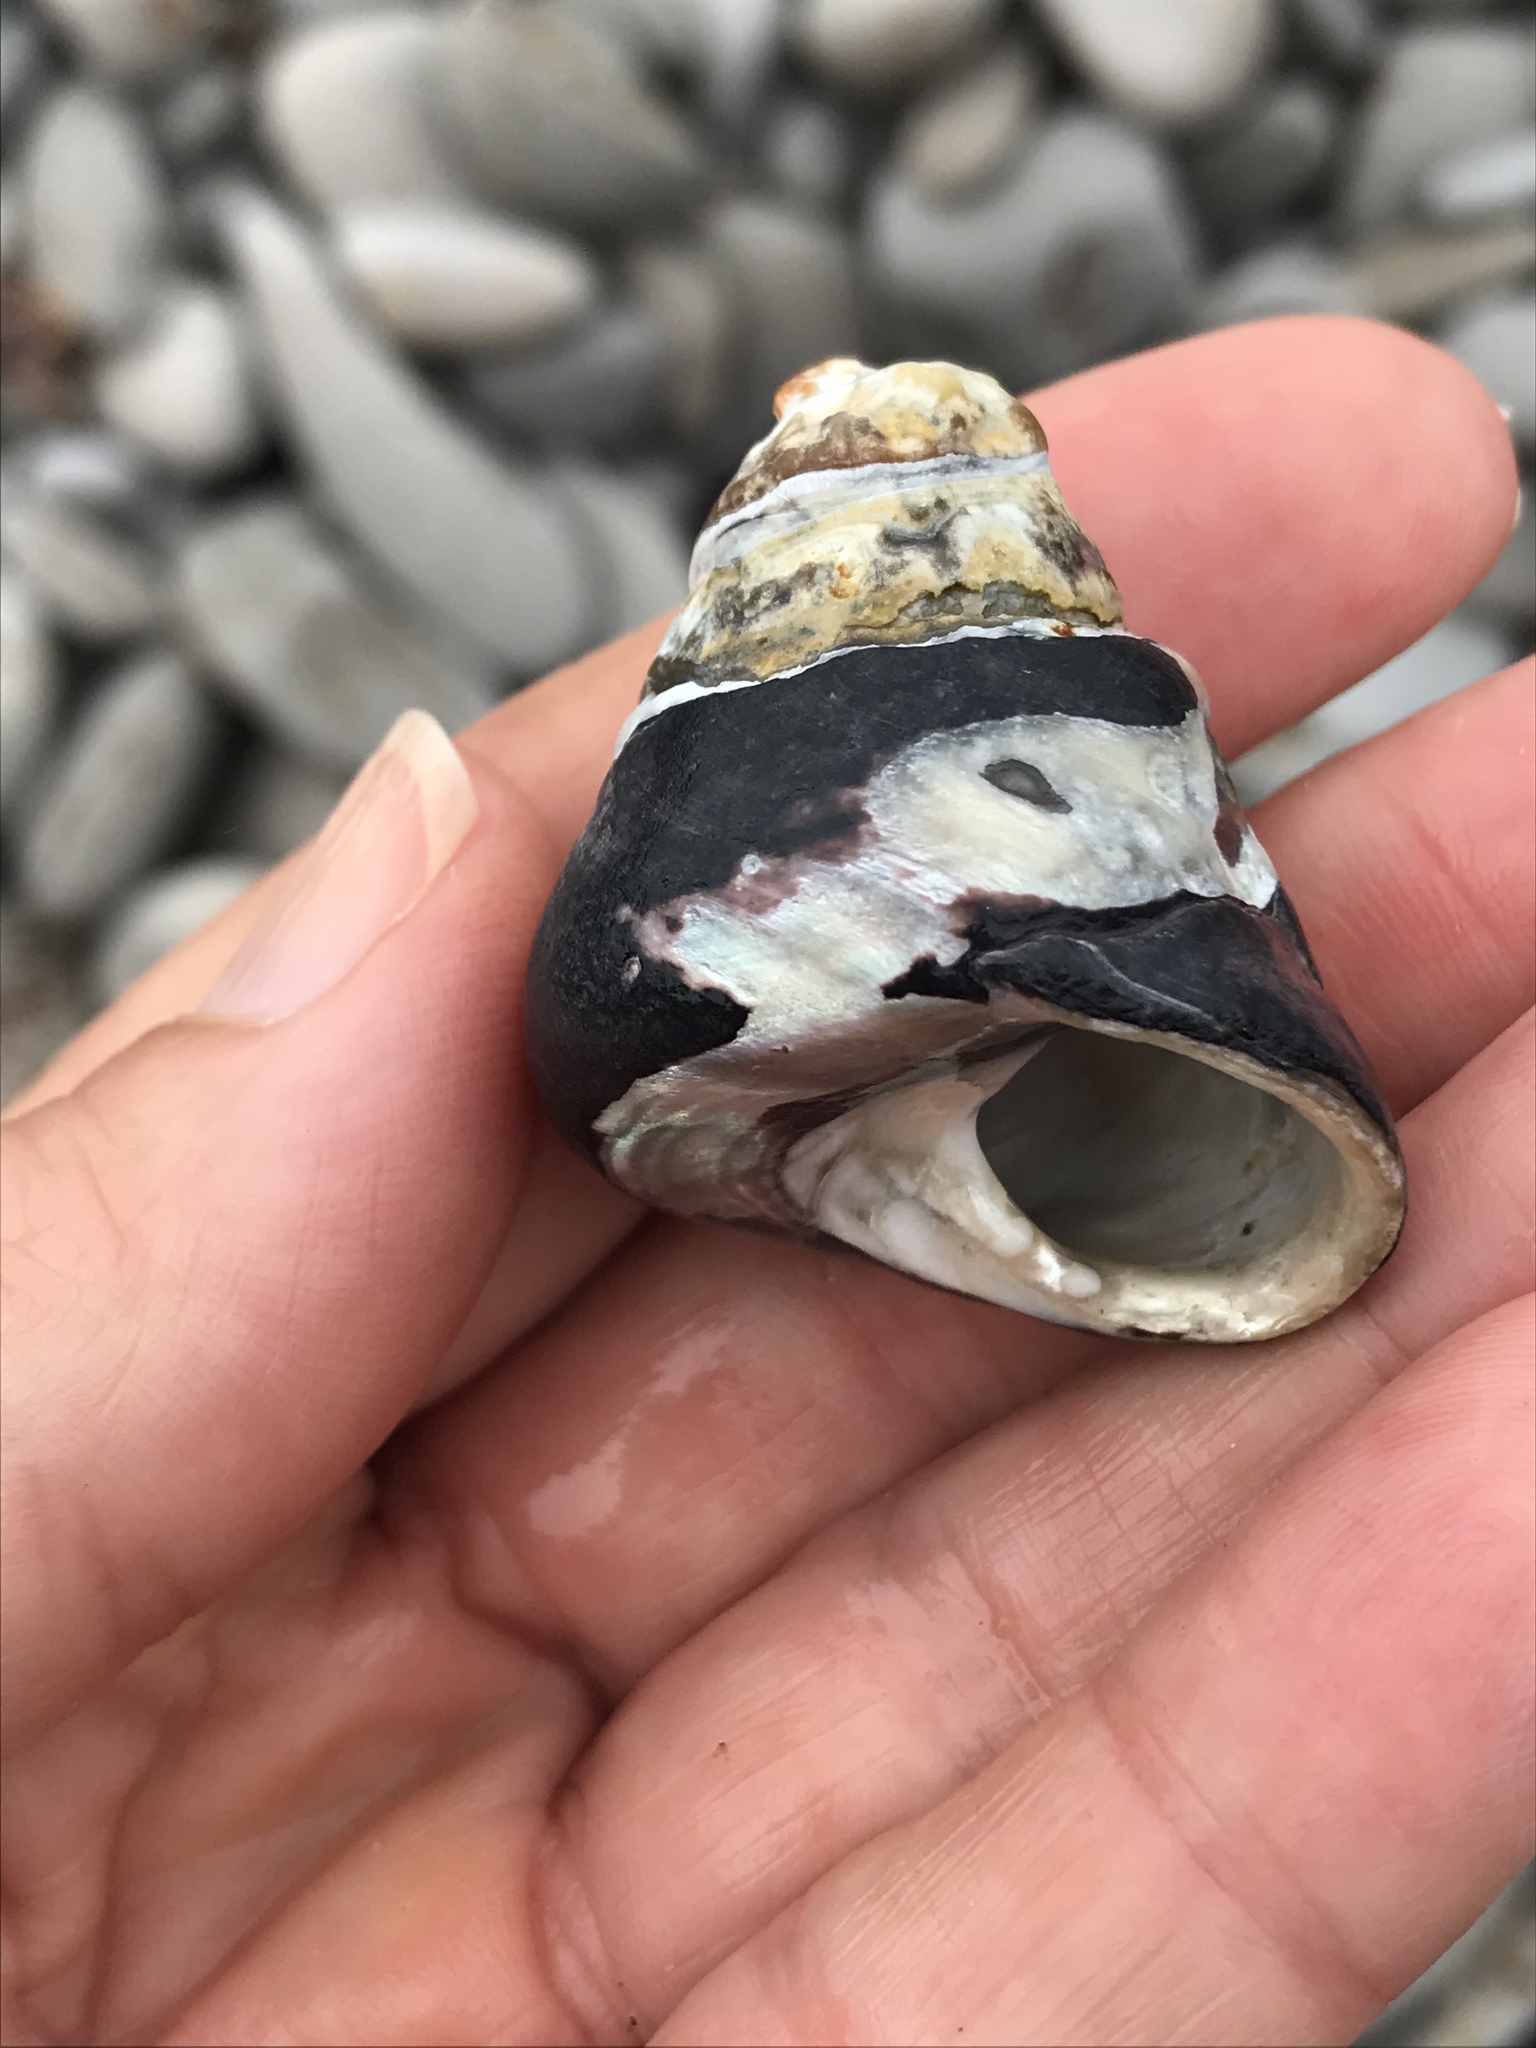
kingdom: Animalia
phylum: Mollusca
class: Gastropoda
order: Trochida
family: Tegulidae
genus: Tegula
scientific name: Tegula funebralis
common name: Black tegula
